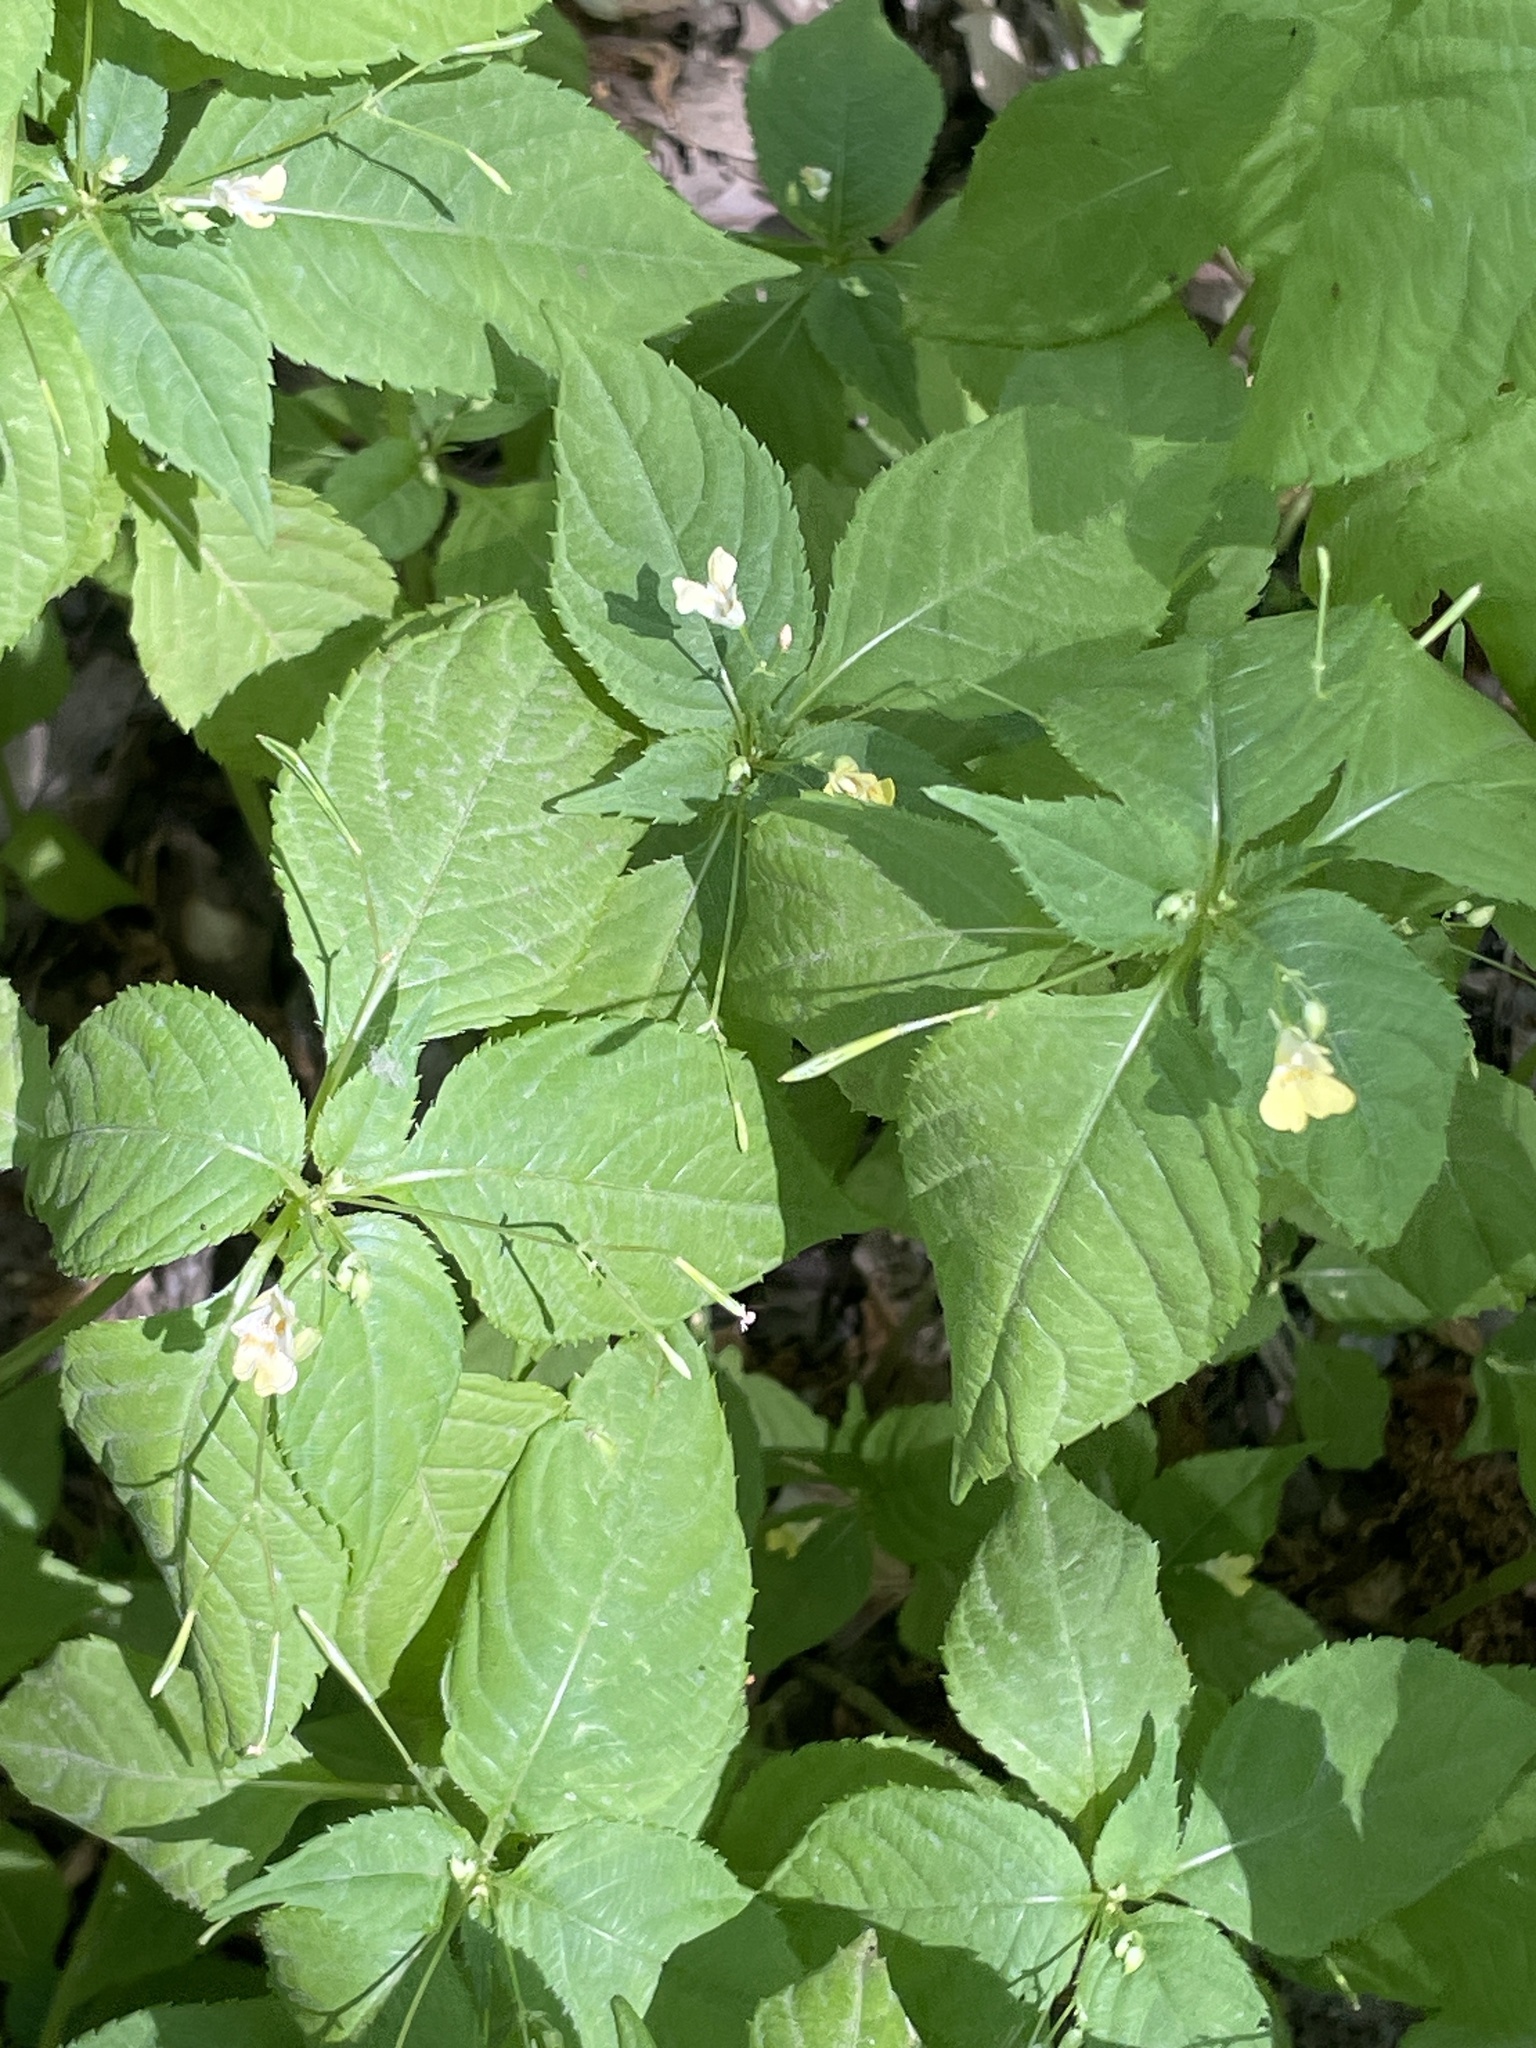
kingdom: Plantae
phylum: Tracheophyta
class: Magnoliopsida
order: Ericales
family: Balsaminaceae
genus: Impatiens
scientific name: Impatiens parviflora
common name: Small balsam
